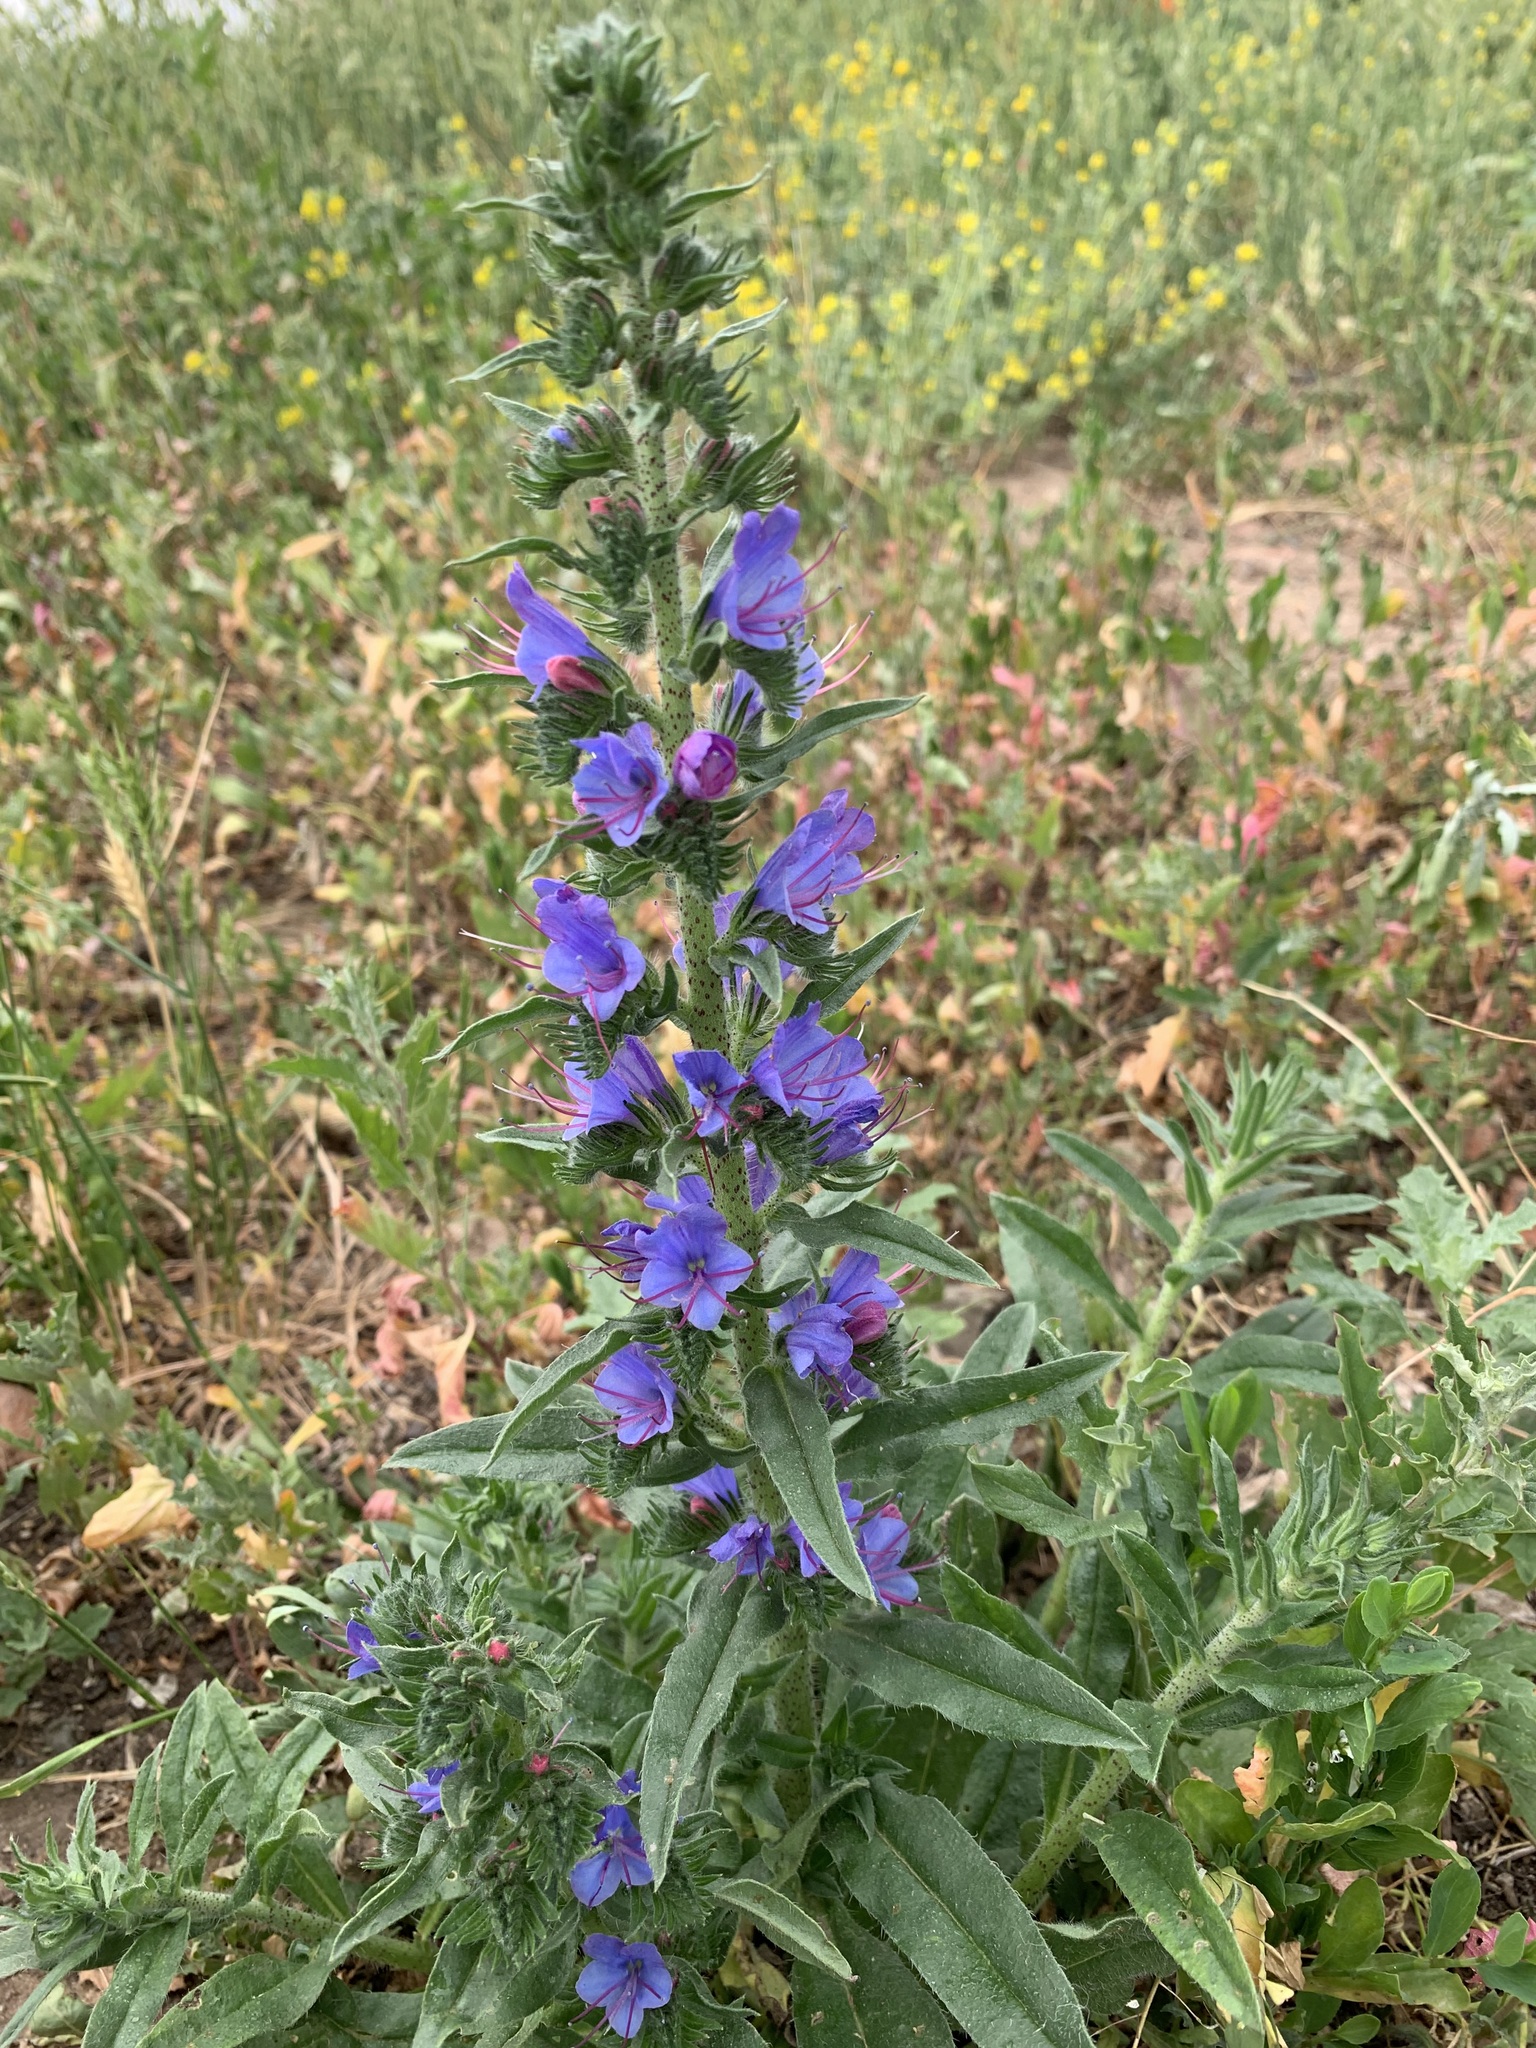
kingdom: Plantae
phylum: Tracheophyta
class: Magnoliopsida
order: Boraginales
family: Boraginaceae
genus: Echium
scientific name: Echium vulgare
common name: Common viper's bugloss
